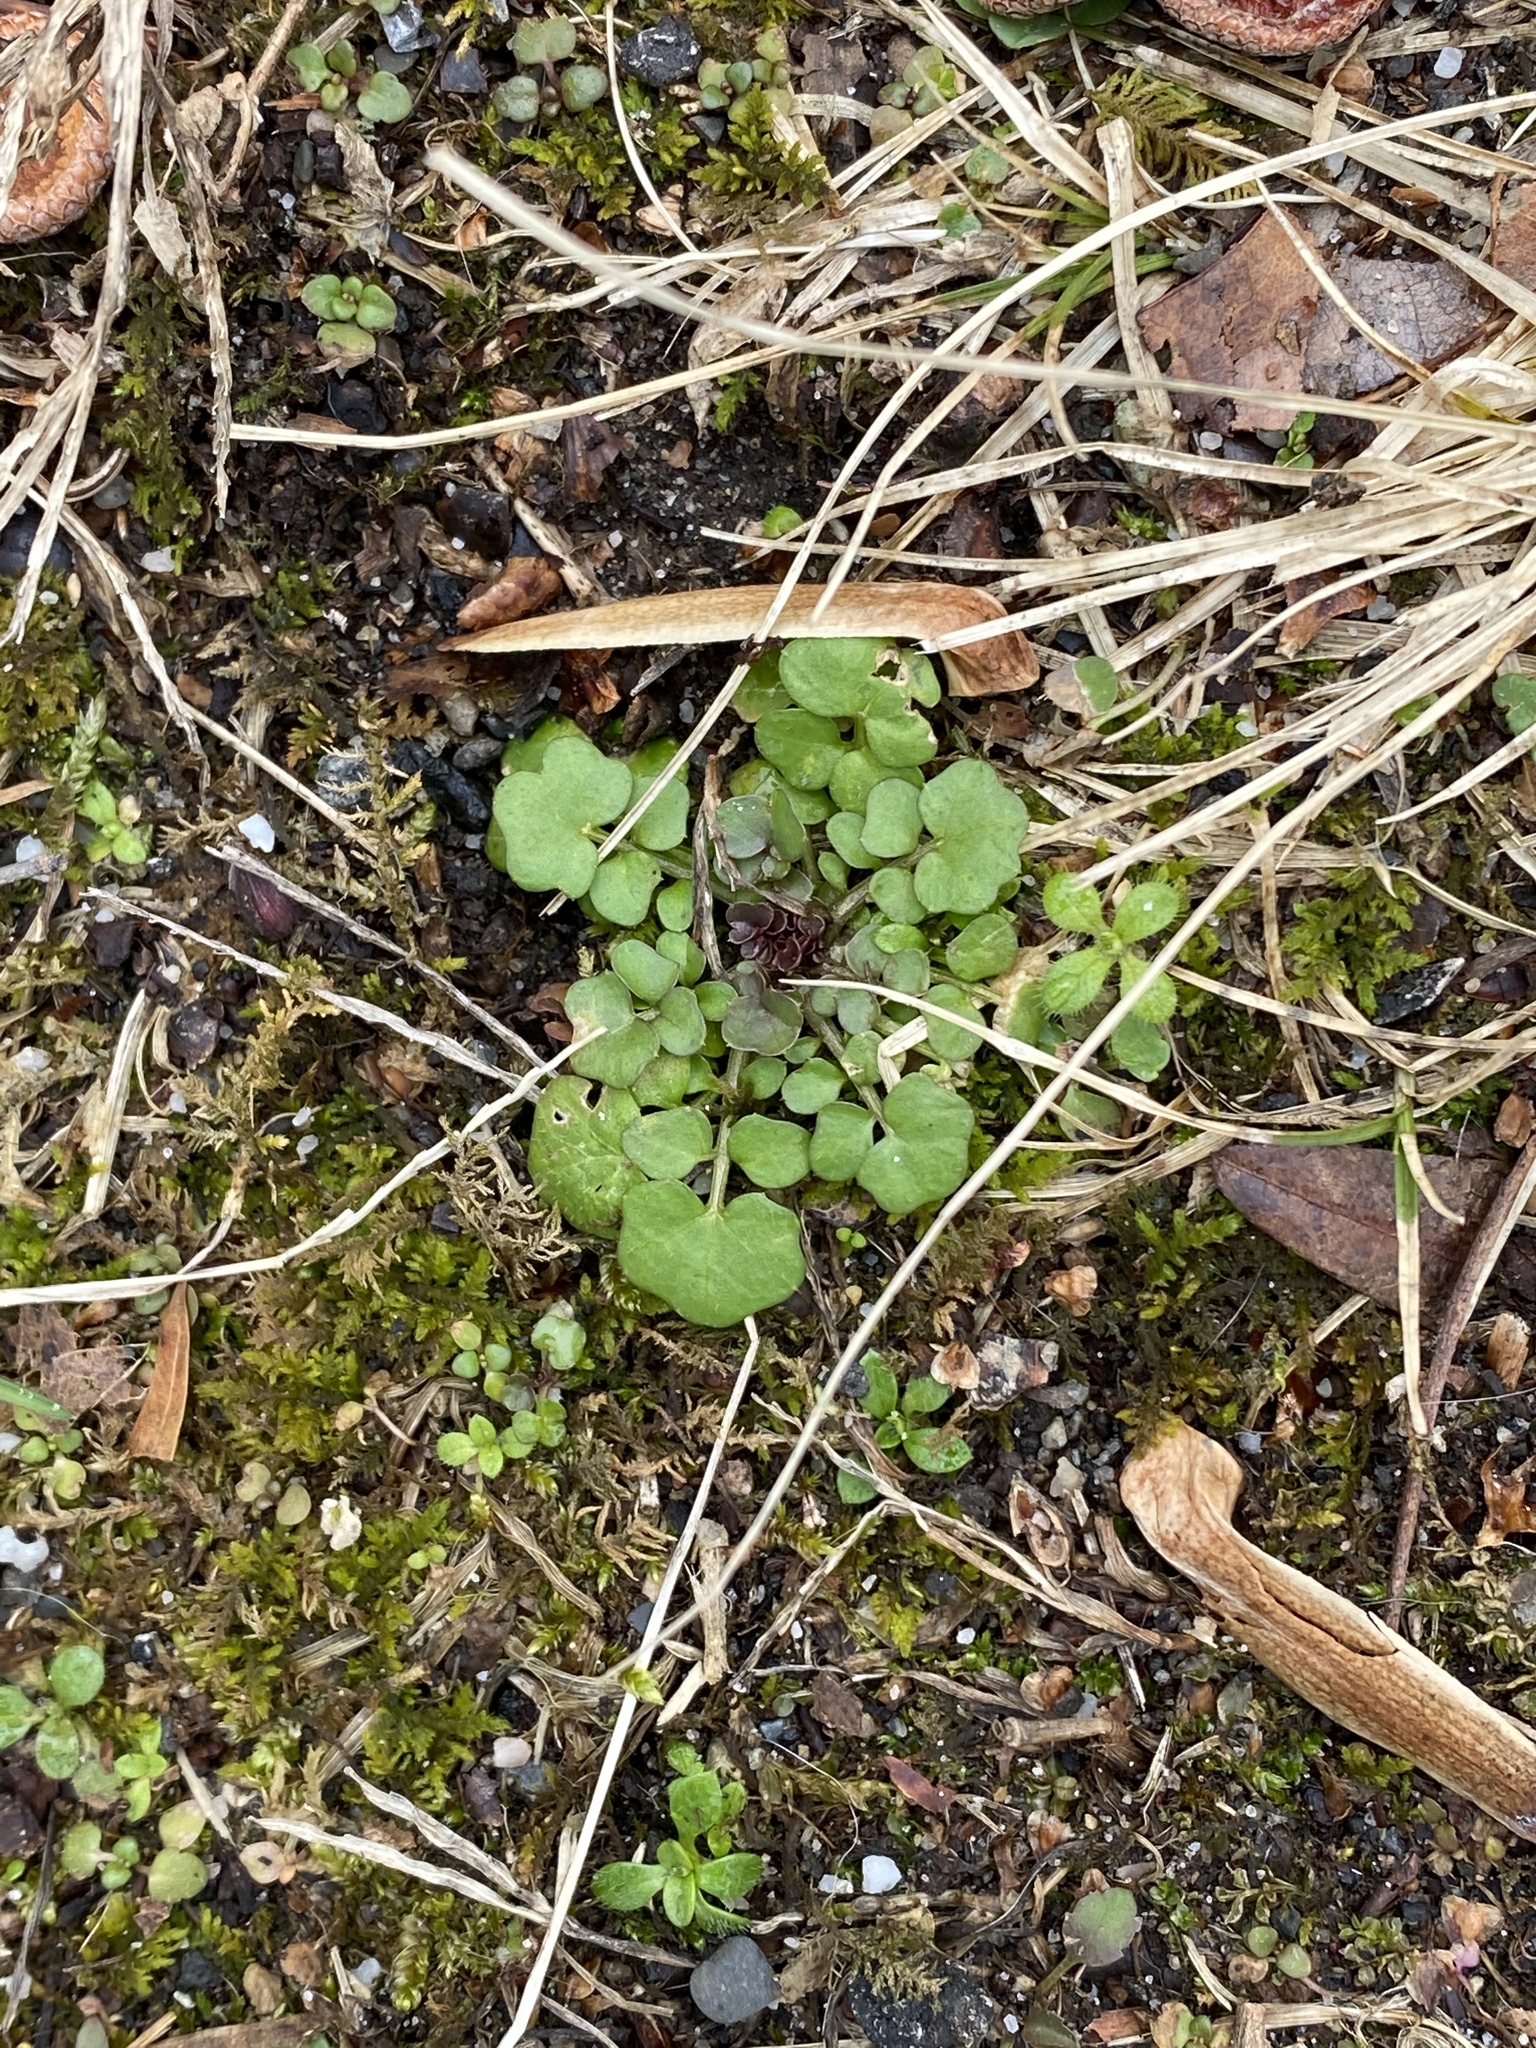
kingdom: Plantae
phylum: Tracheophyta
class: Magnoliopsida
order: Brassicales
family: Brassicaceae
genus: Cardamine
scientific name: Cardamine hirsuta
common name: Hairy bittercress
